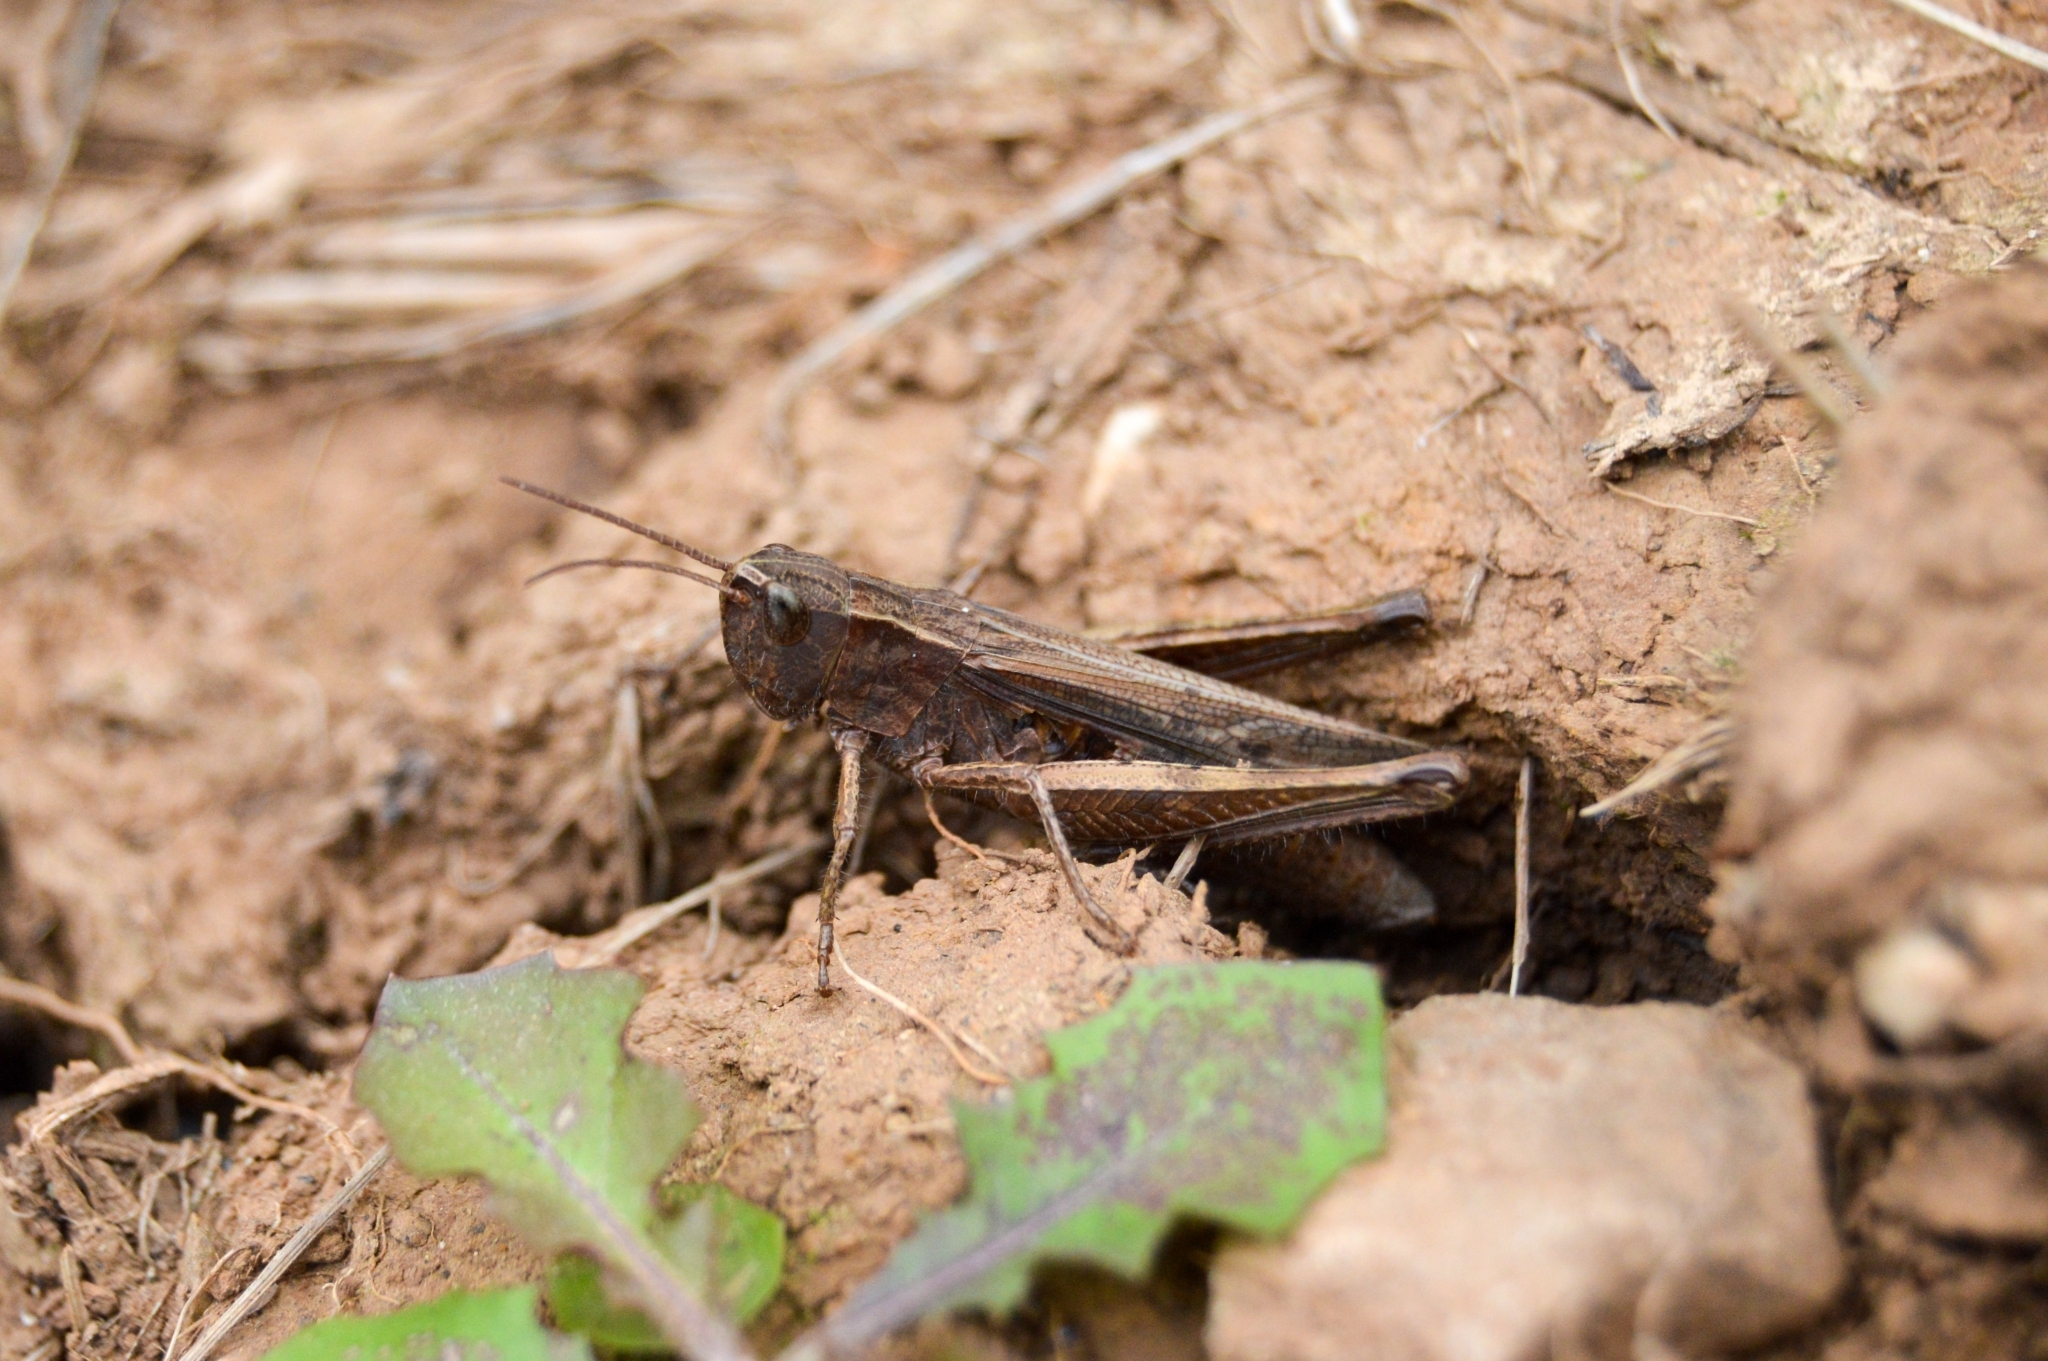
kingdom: Animalia
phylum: Arthropoda
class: Insecta
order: Orthoptera
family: Acrididae
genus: Chorthippus
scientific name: Chorthippus dorsatus
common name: Steppe grasshopper
